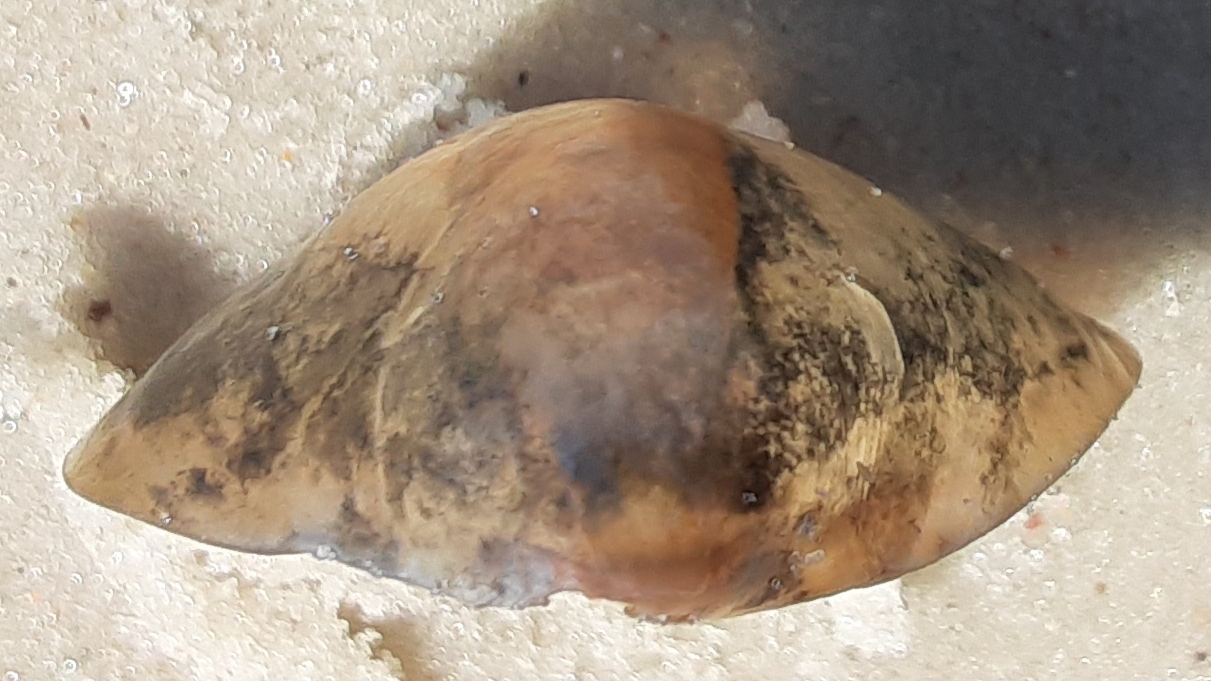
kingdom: Animalia
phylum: Mollusca
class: Bivalvia
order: Pectinida
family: Anomiidae
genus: Anomia
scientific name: Anomia simplex
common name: Common jingle shell
